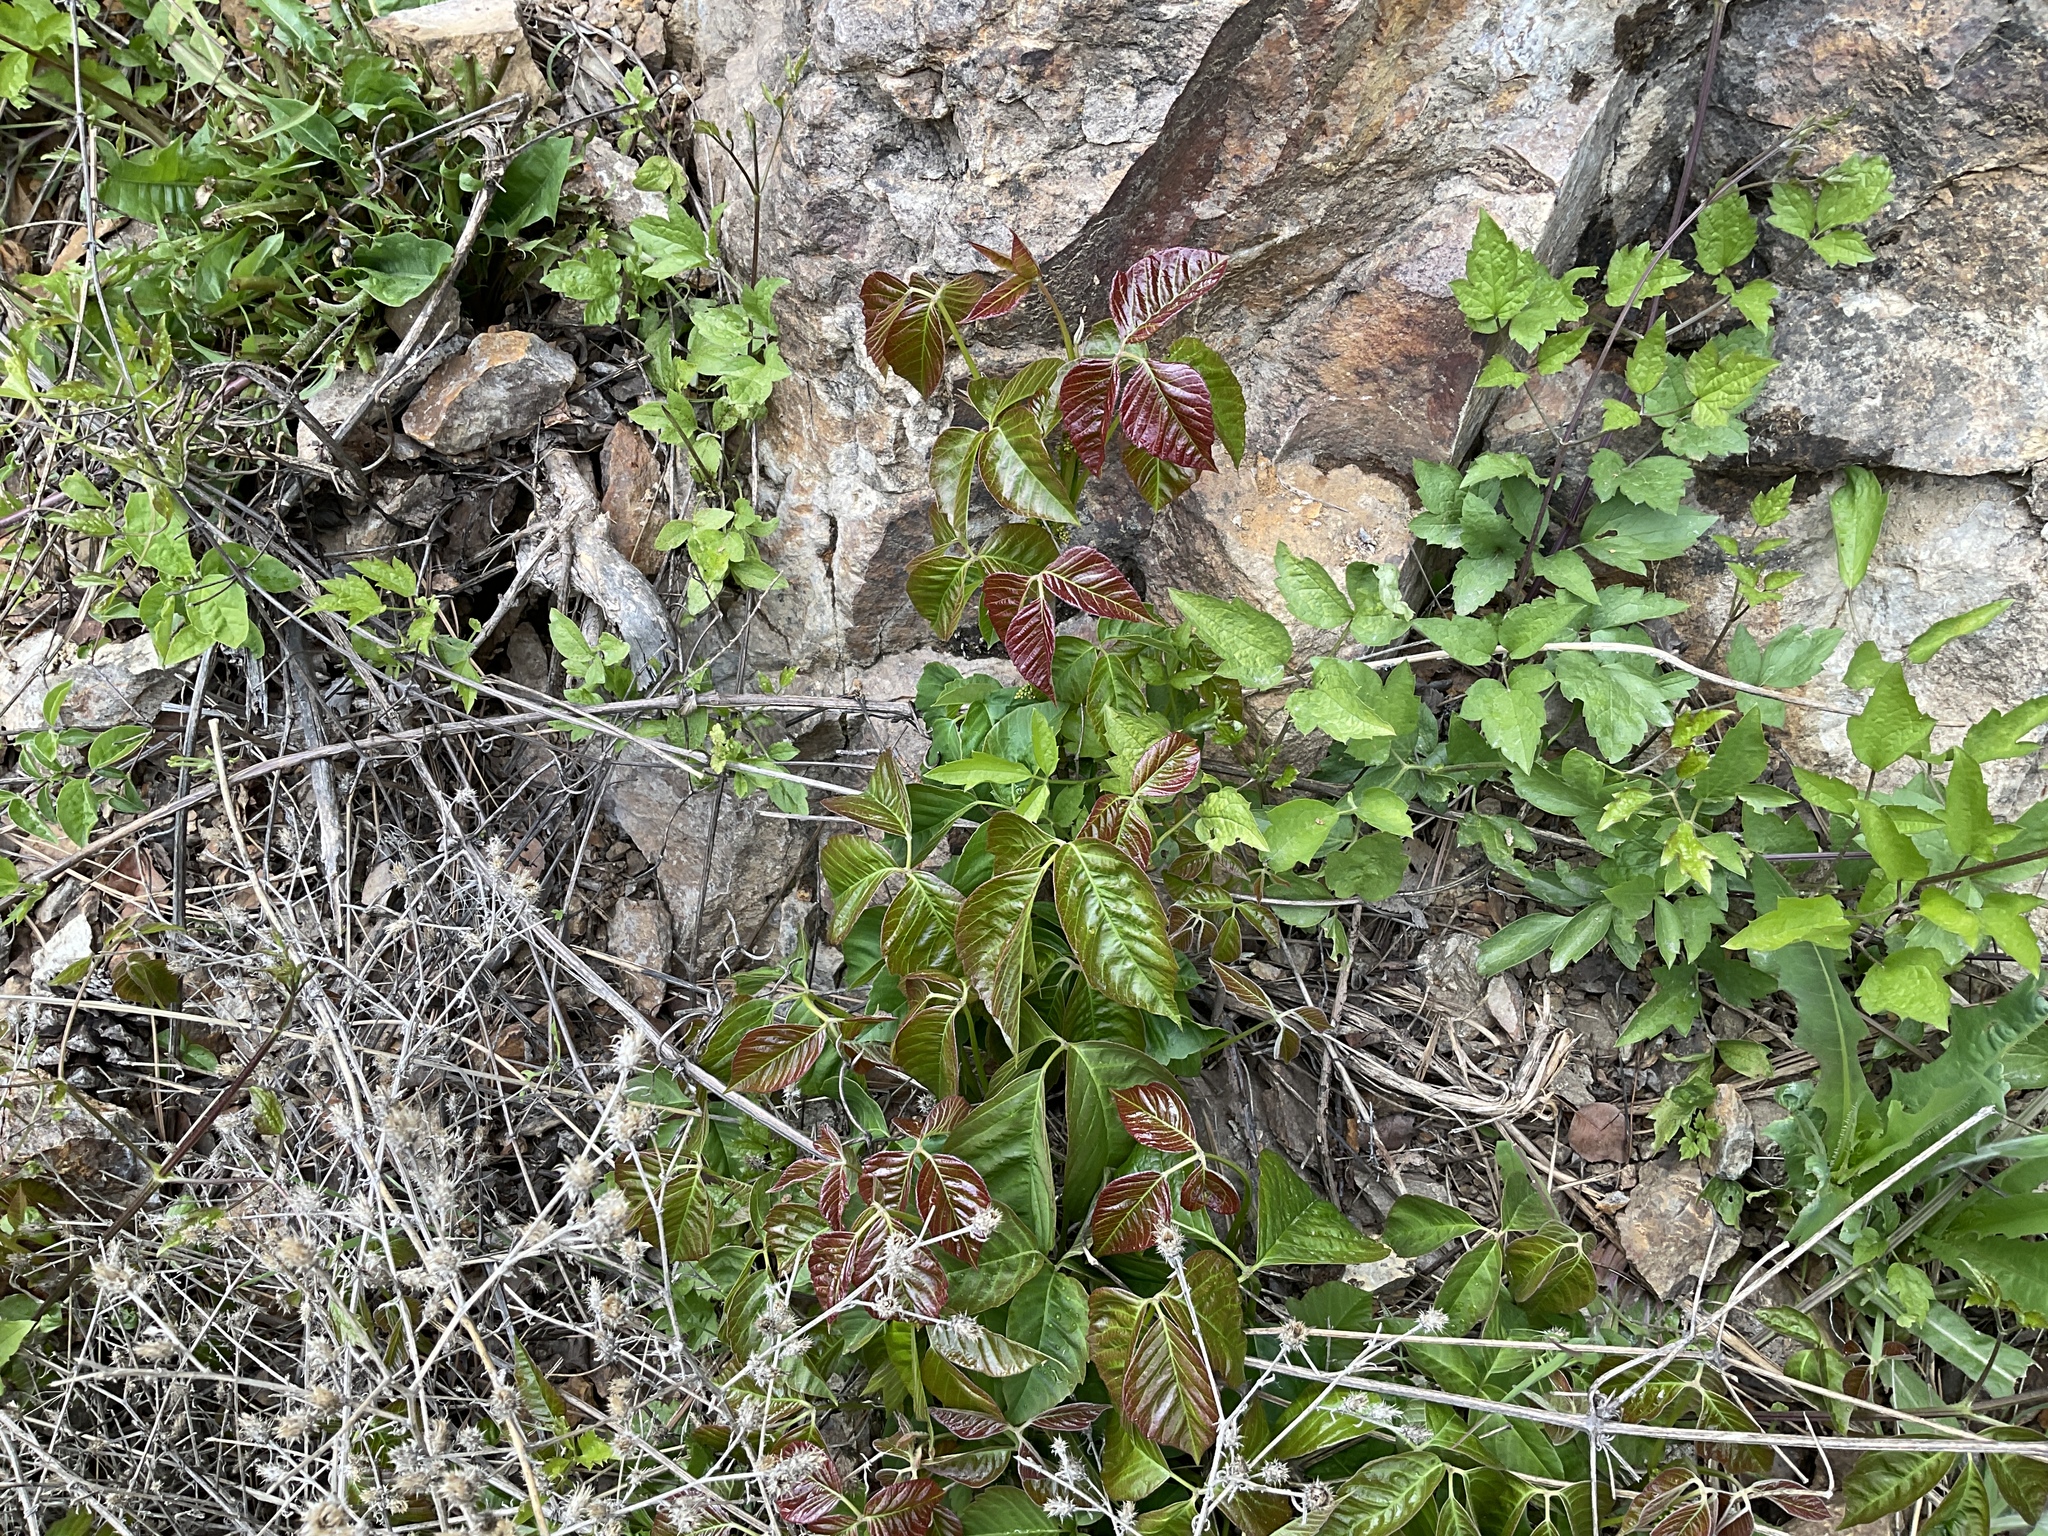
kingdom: Plantae
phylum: Tracheophyta
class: Magnoliopsida
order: Sapindales
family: Anacardiaceae
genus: Toxicodendron
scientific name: Toxicodendron rydbergii
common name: Rydberg's poison-ivy
